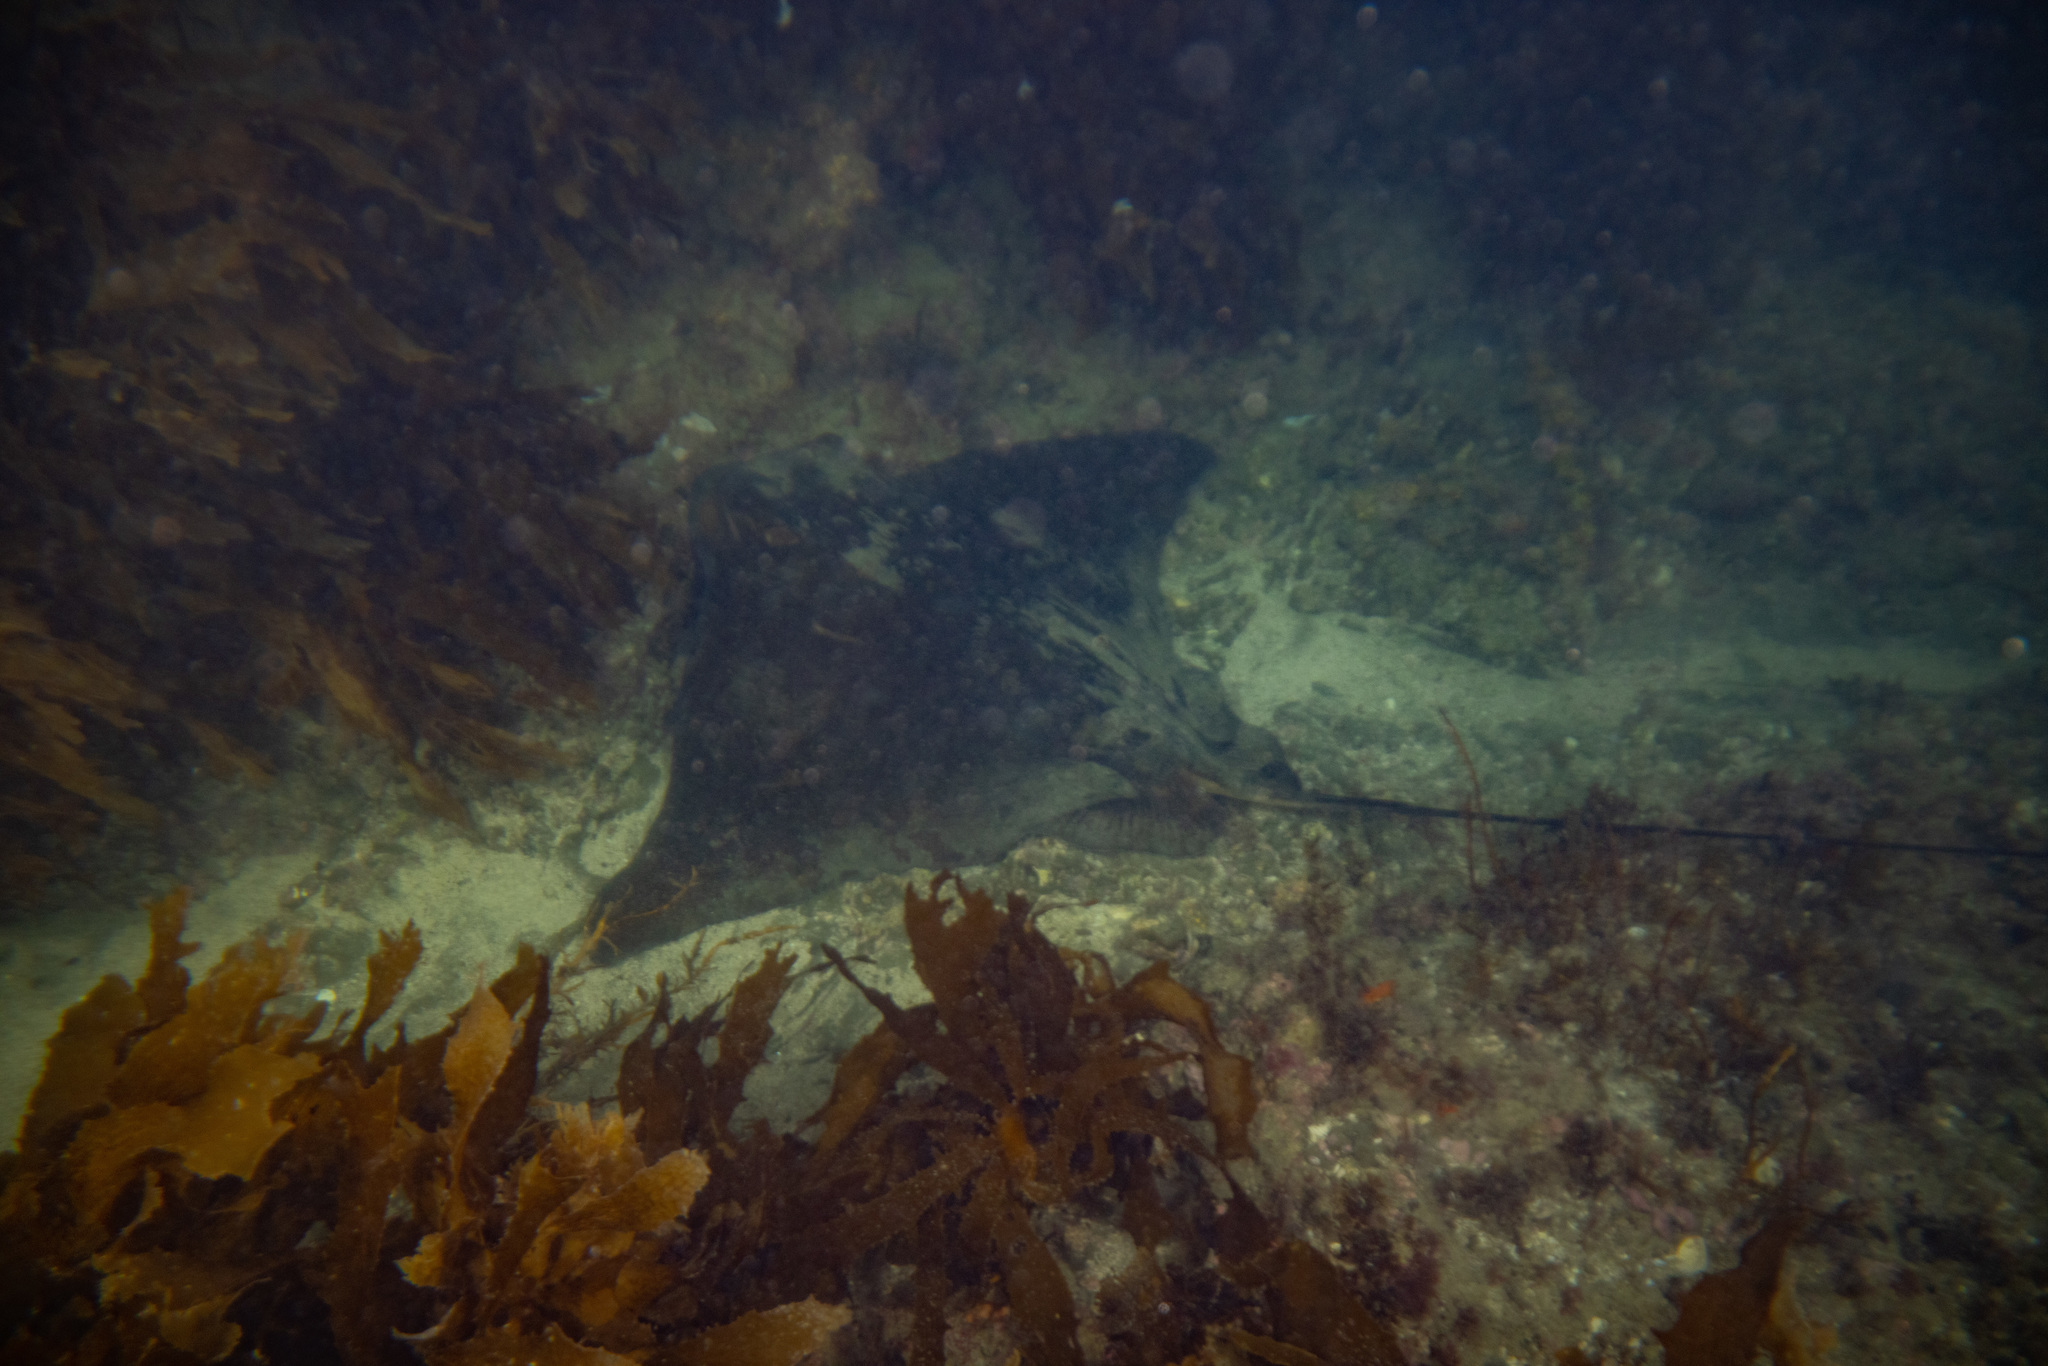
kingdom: Animalia
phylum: Chordata
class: Elasmobranchii
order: Myliobatiformes
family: Myliobatidae
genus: Myliobatis
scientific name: Myliobatis tenuicaudatus
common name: Eagle ray
